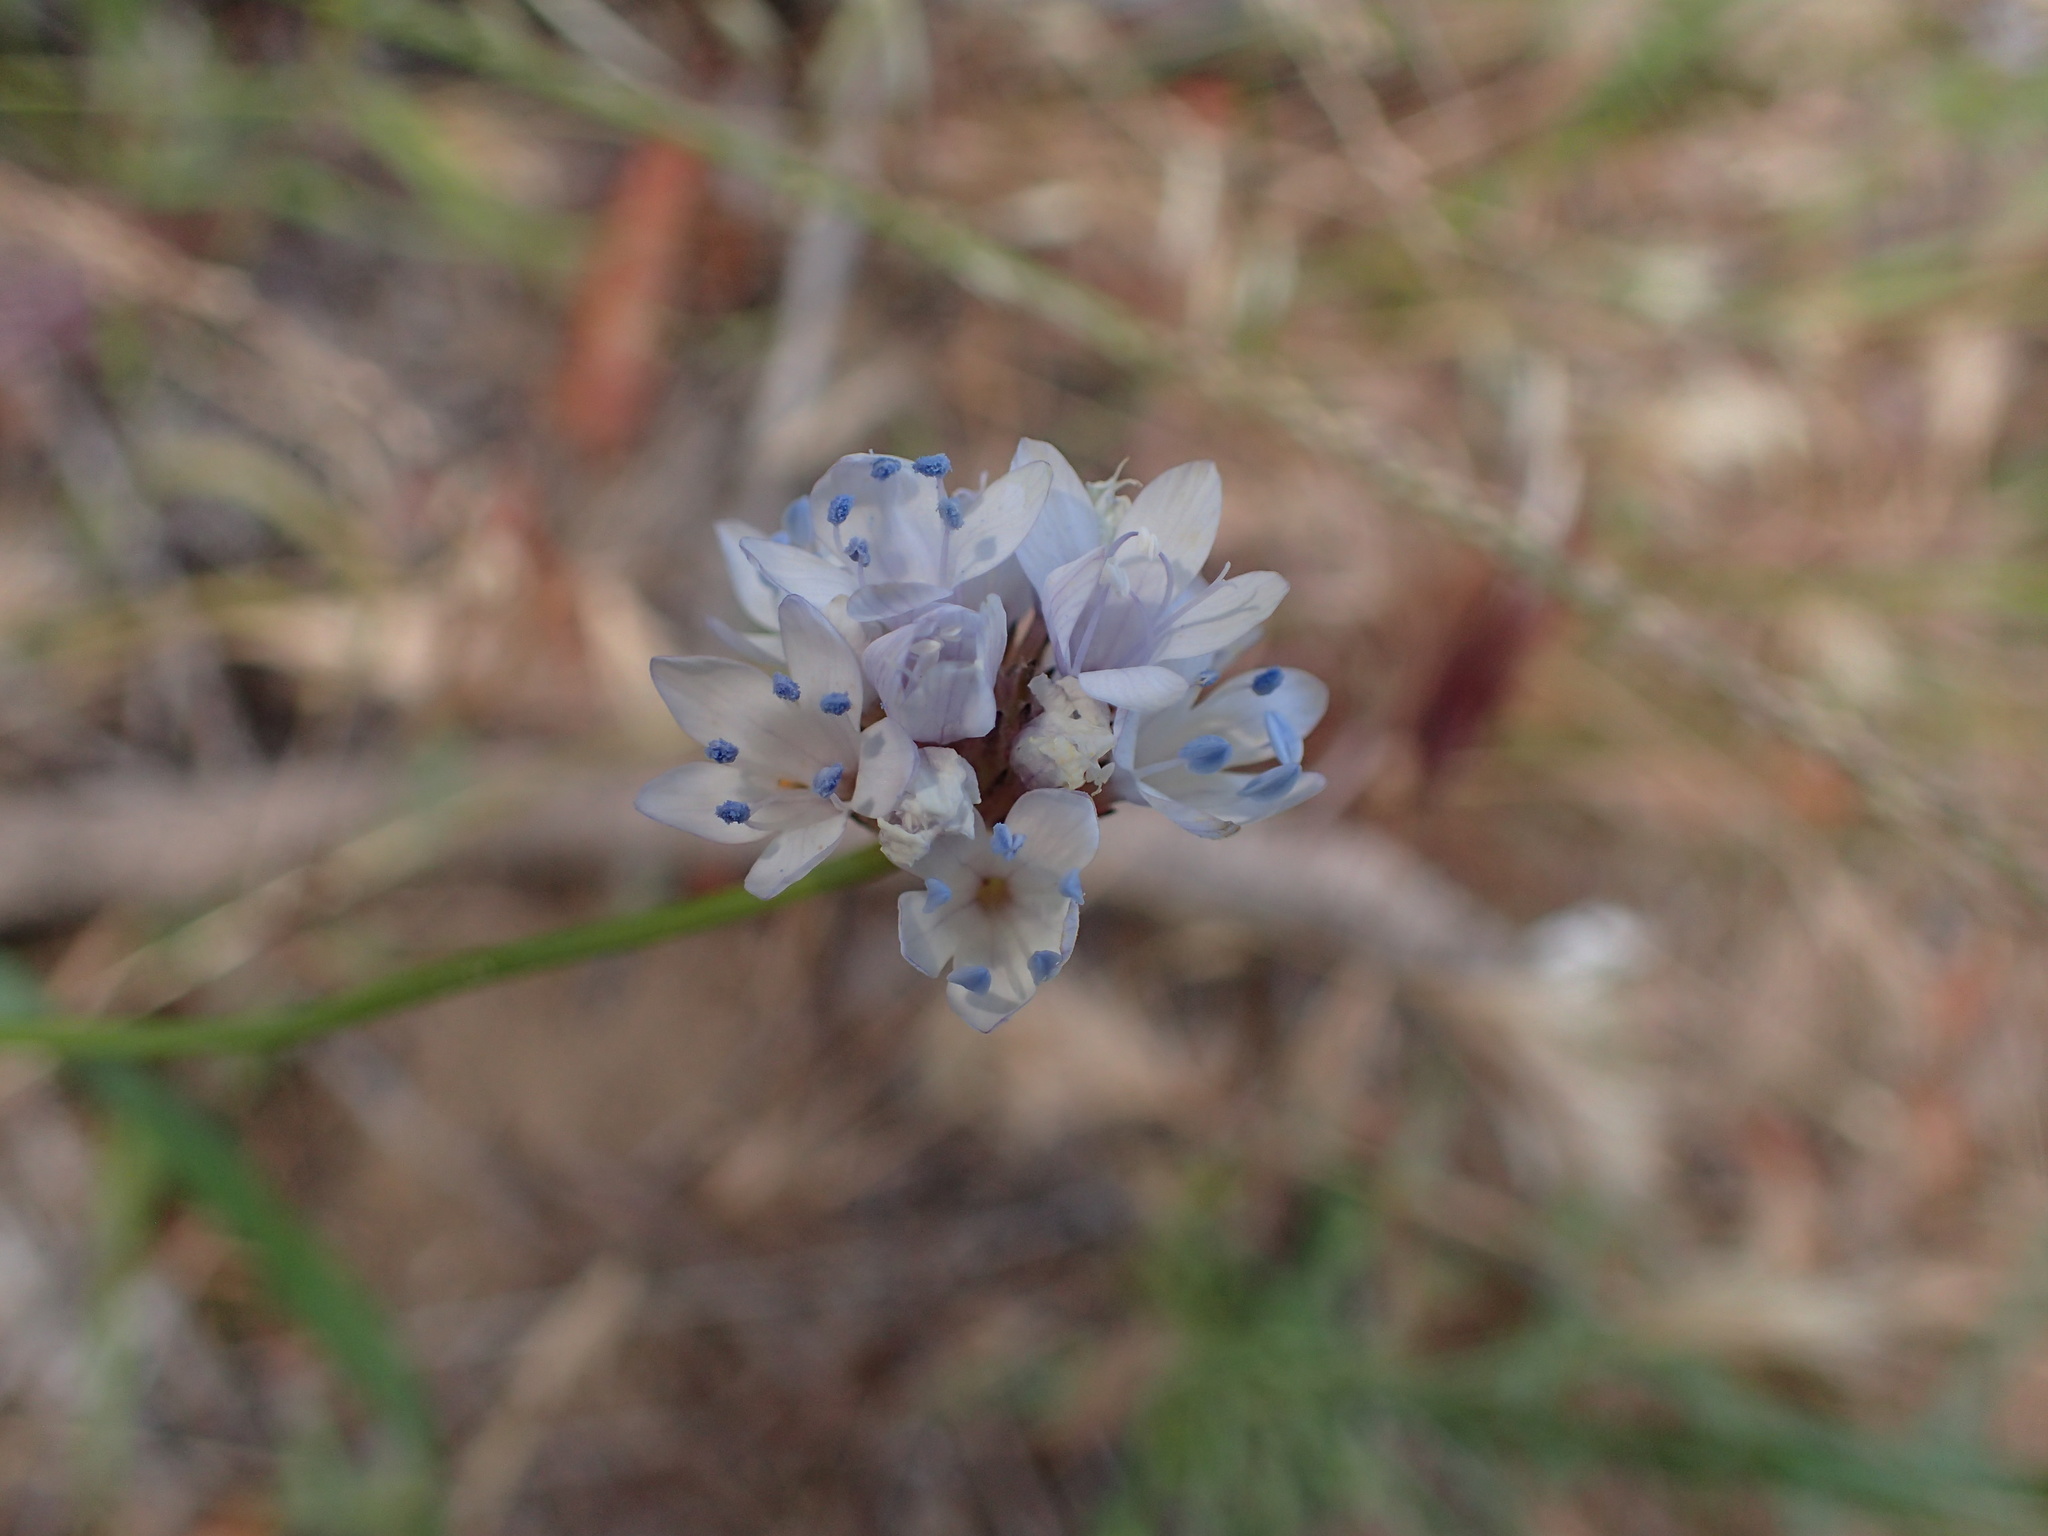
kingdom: Plantae
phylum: Tracheophyta
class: Magnoliopsida
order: Ericales
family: Polemoniaceae
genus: Gilia
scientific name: Gilia capitata
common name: Bluehead gilia
